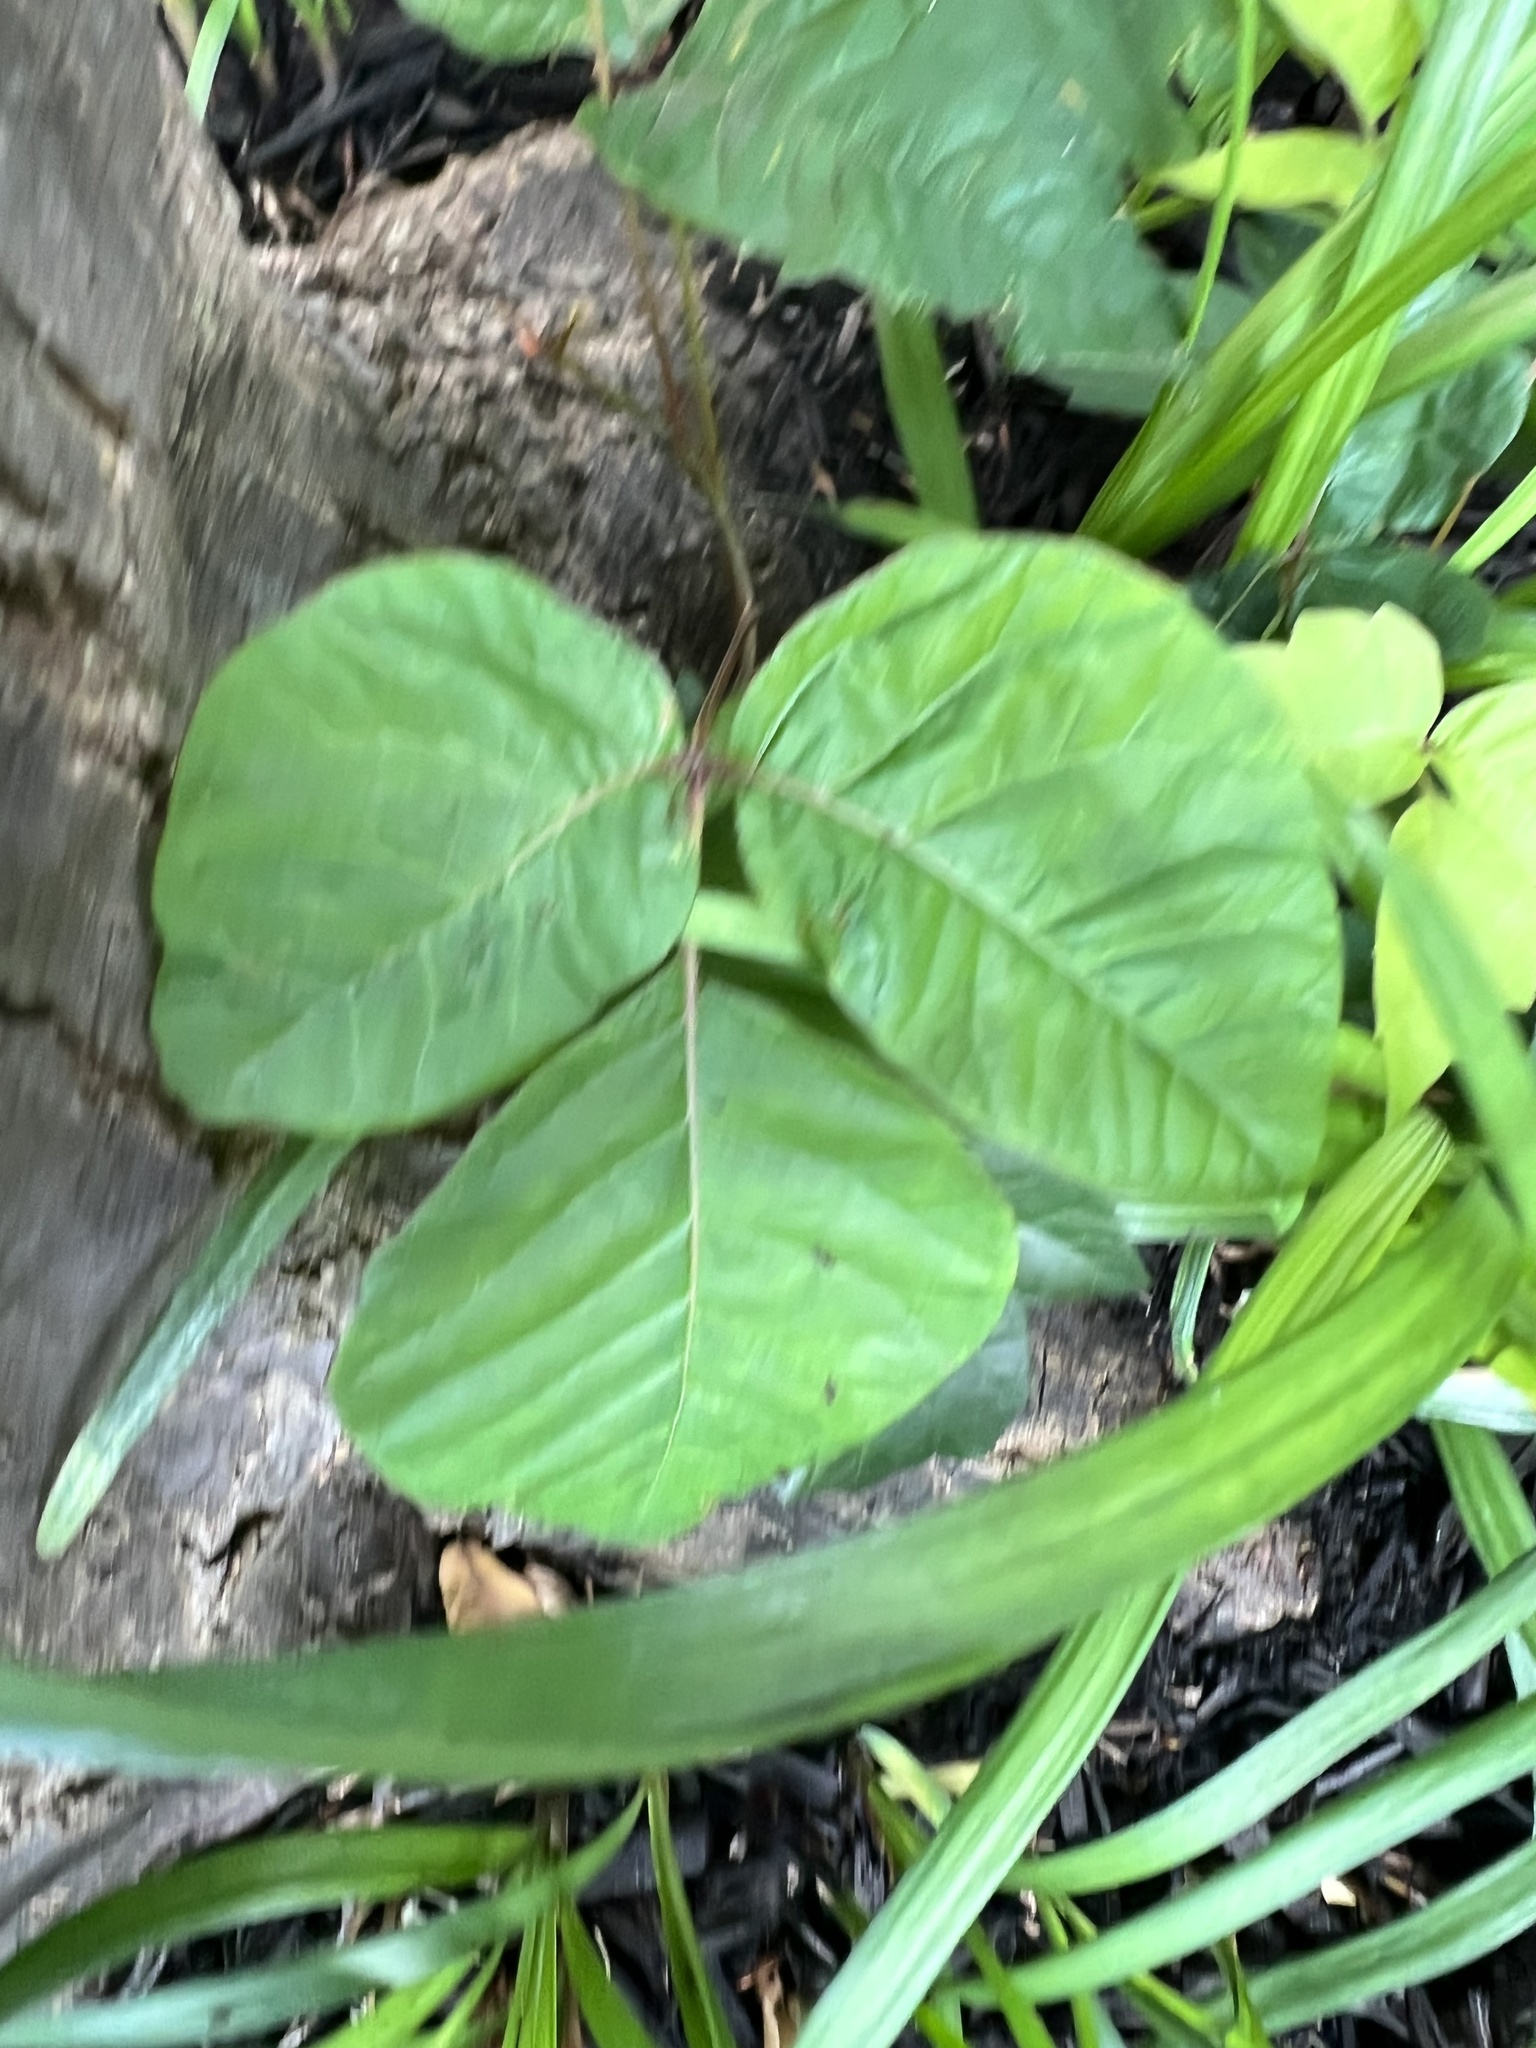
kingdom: Plantae
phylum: Tracheophyta
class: Magnoliopsida
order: Sapindales
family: Anacardiaceae
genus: Toxicodendron
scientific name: Toxicodendron radicans
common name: Poison ivy
